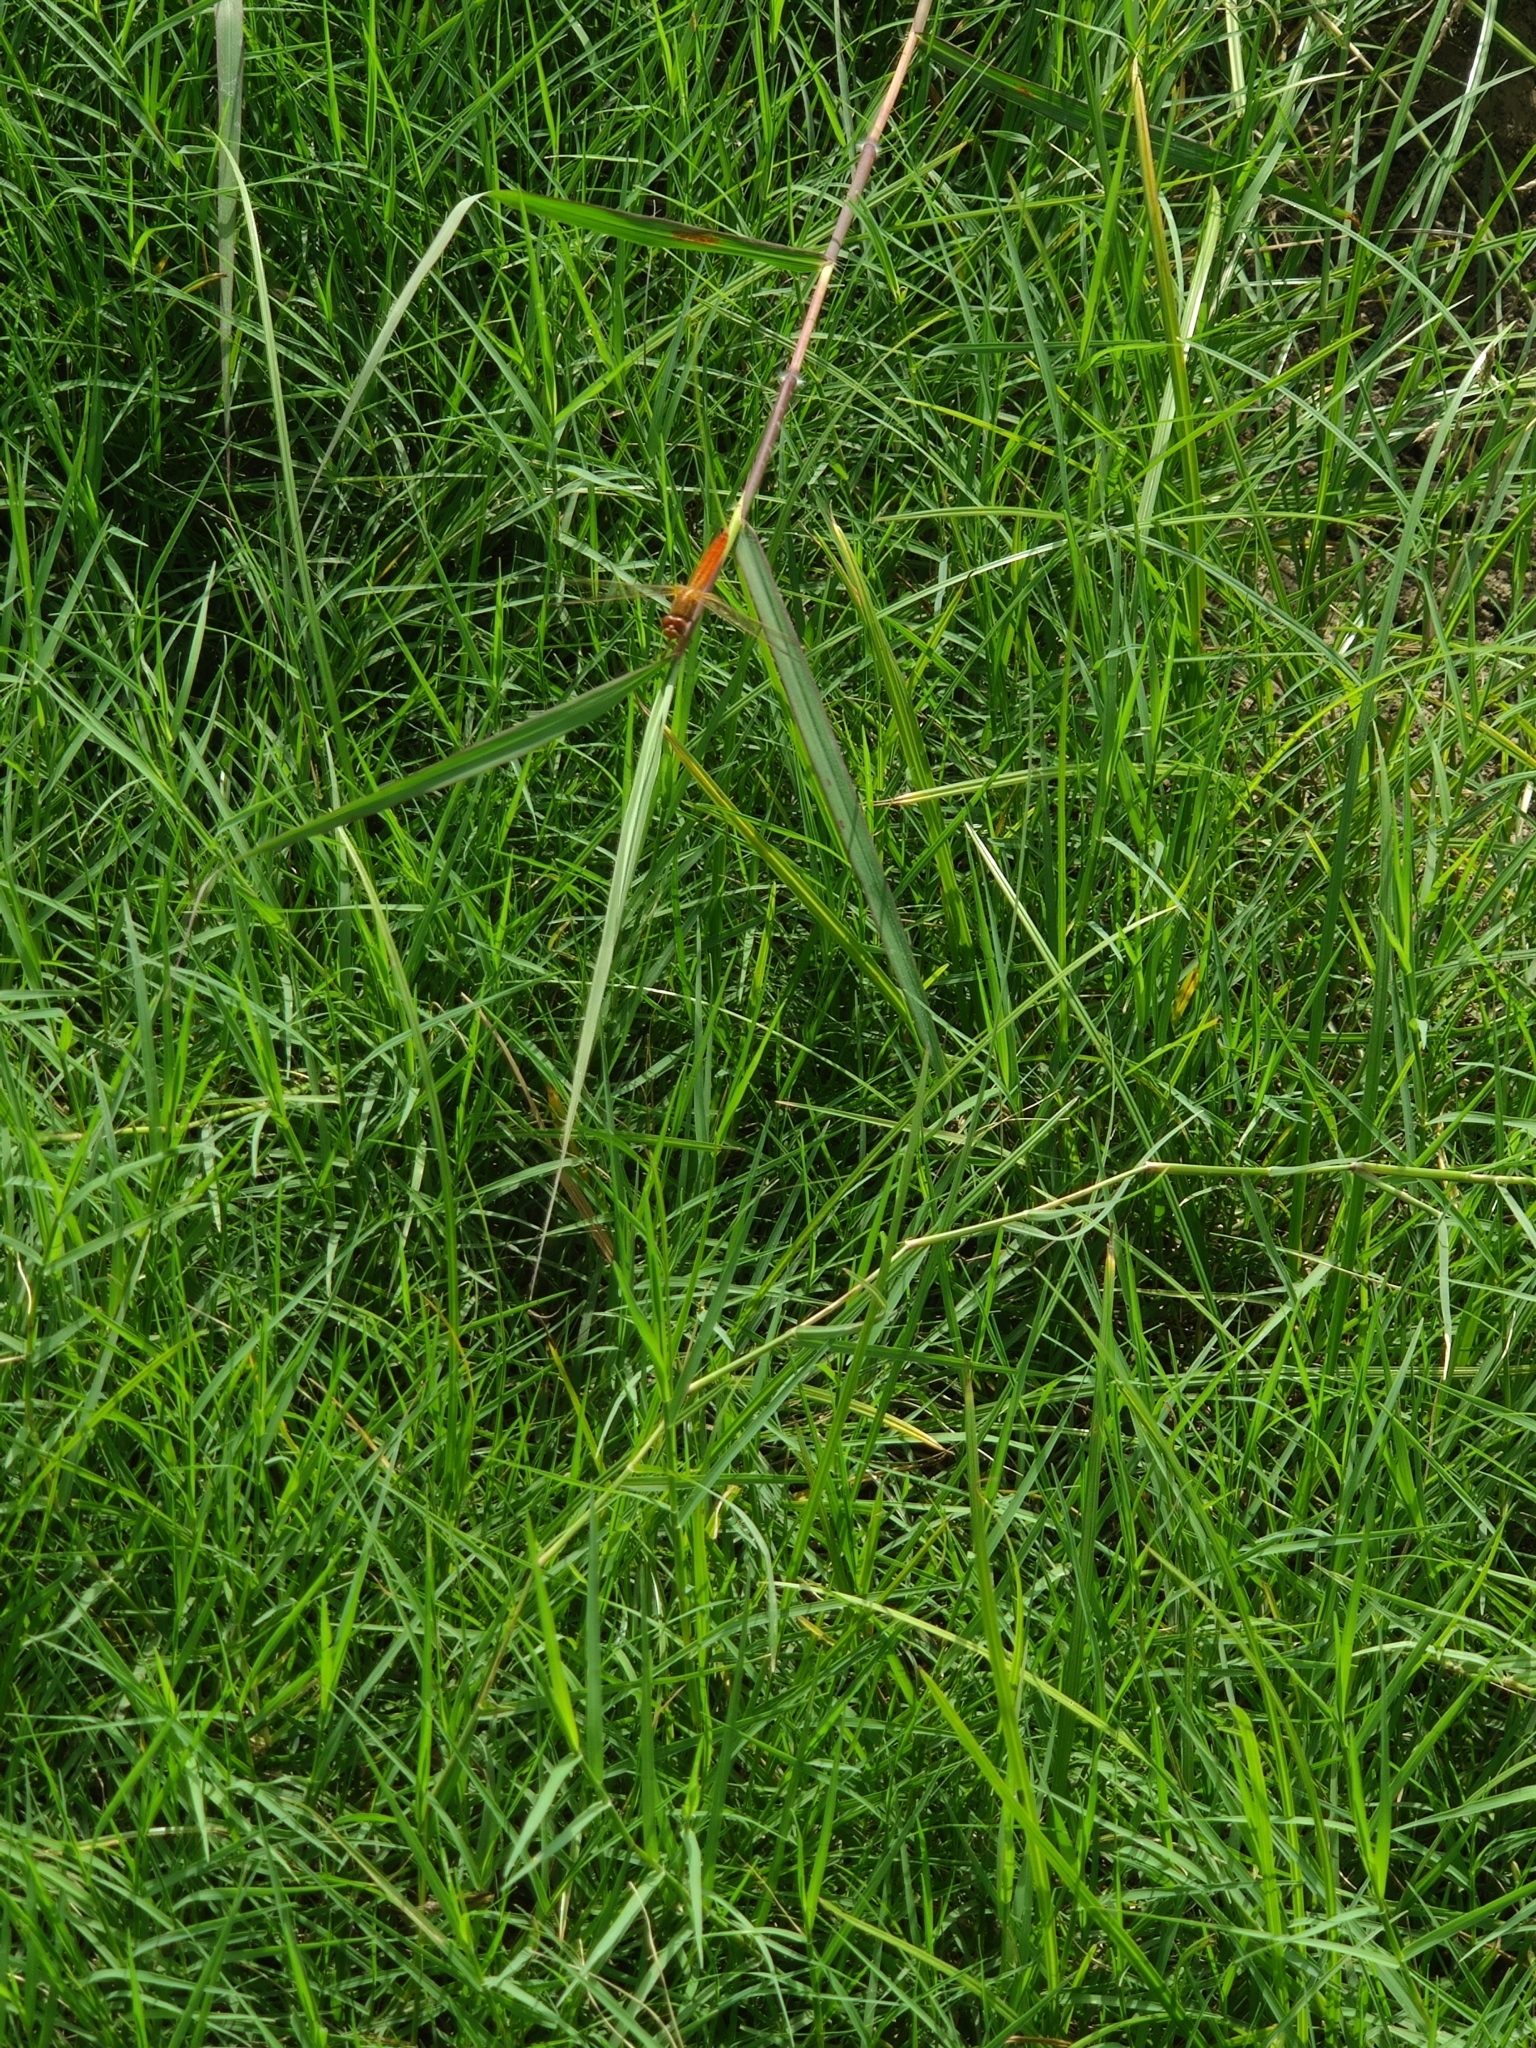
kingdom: Animalia
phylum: Arthropoda
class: Insecta
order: Odonata
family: Libellulidae
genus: Crocothemis
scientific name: Crocothemis servilia
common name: Scarlet skimmer
